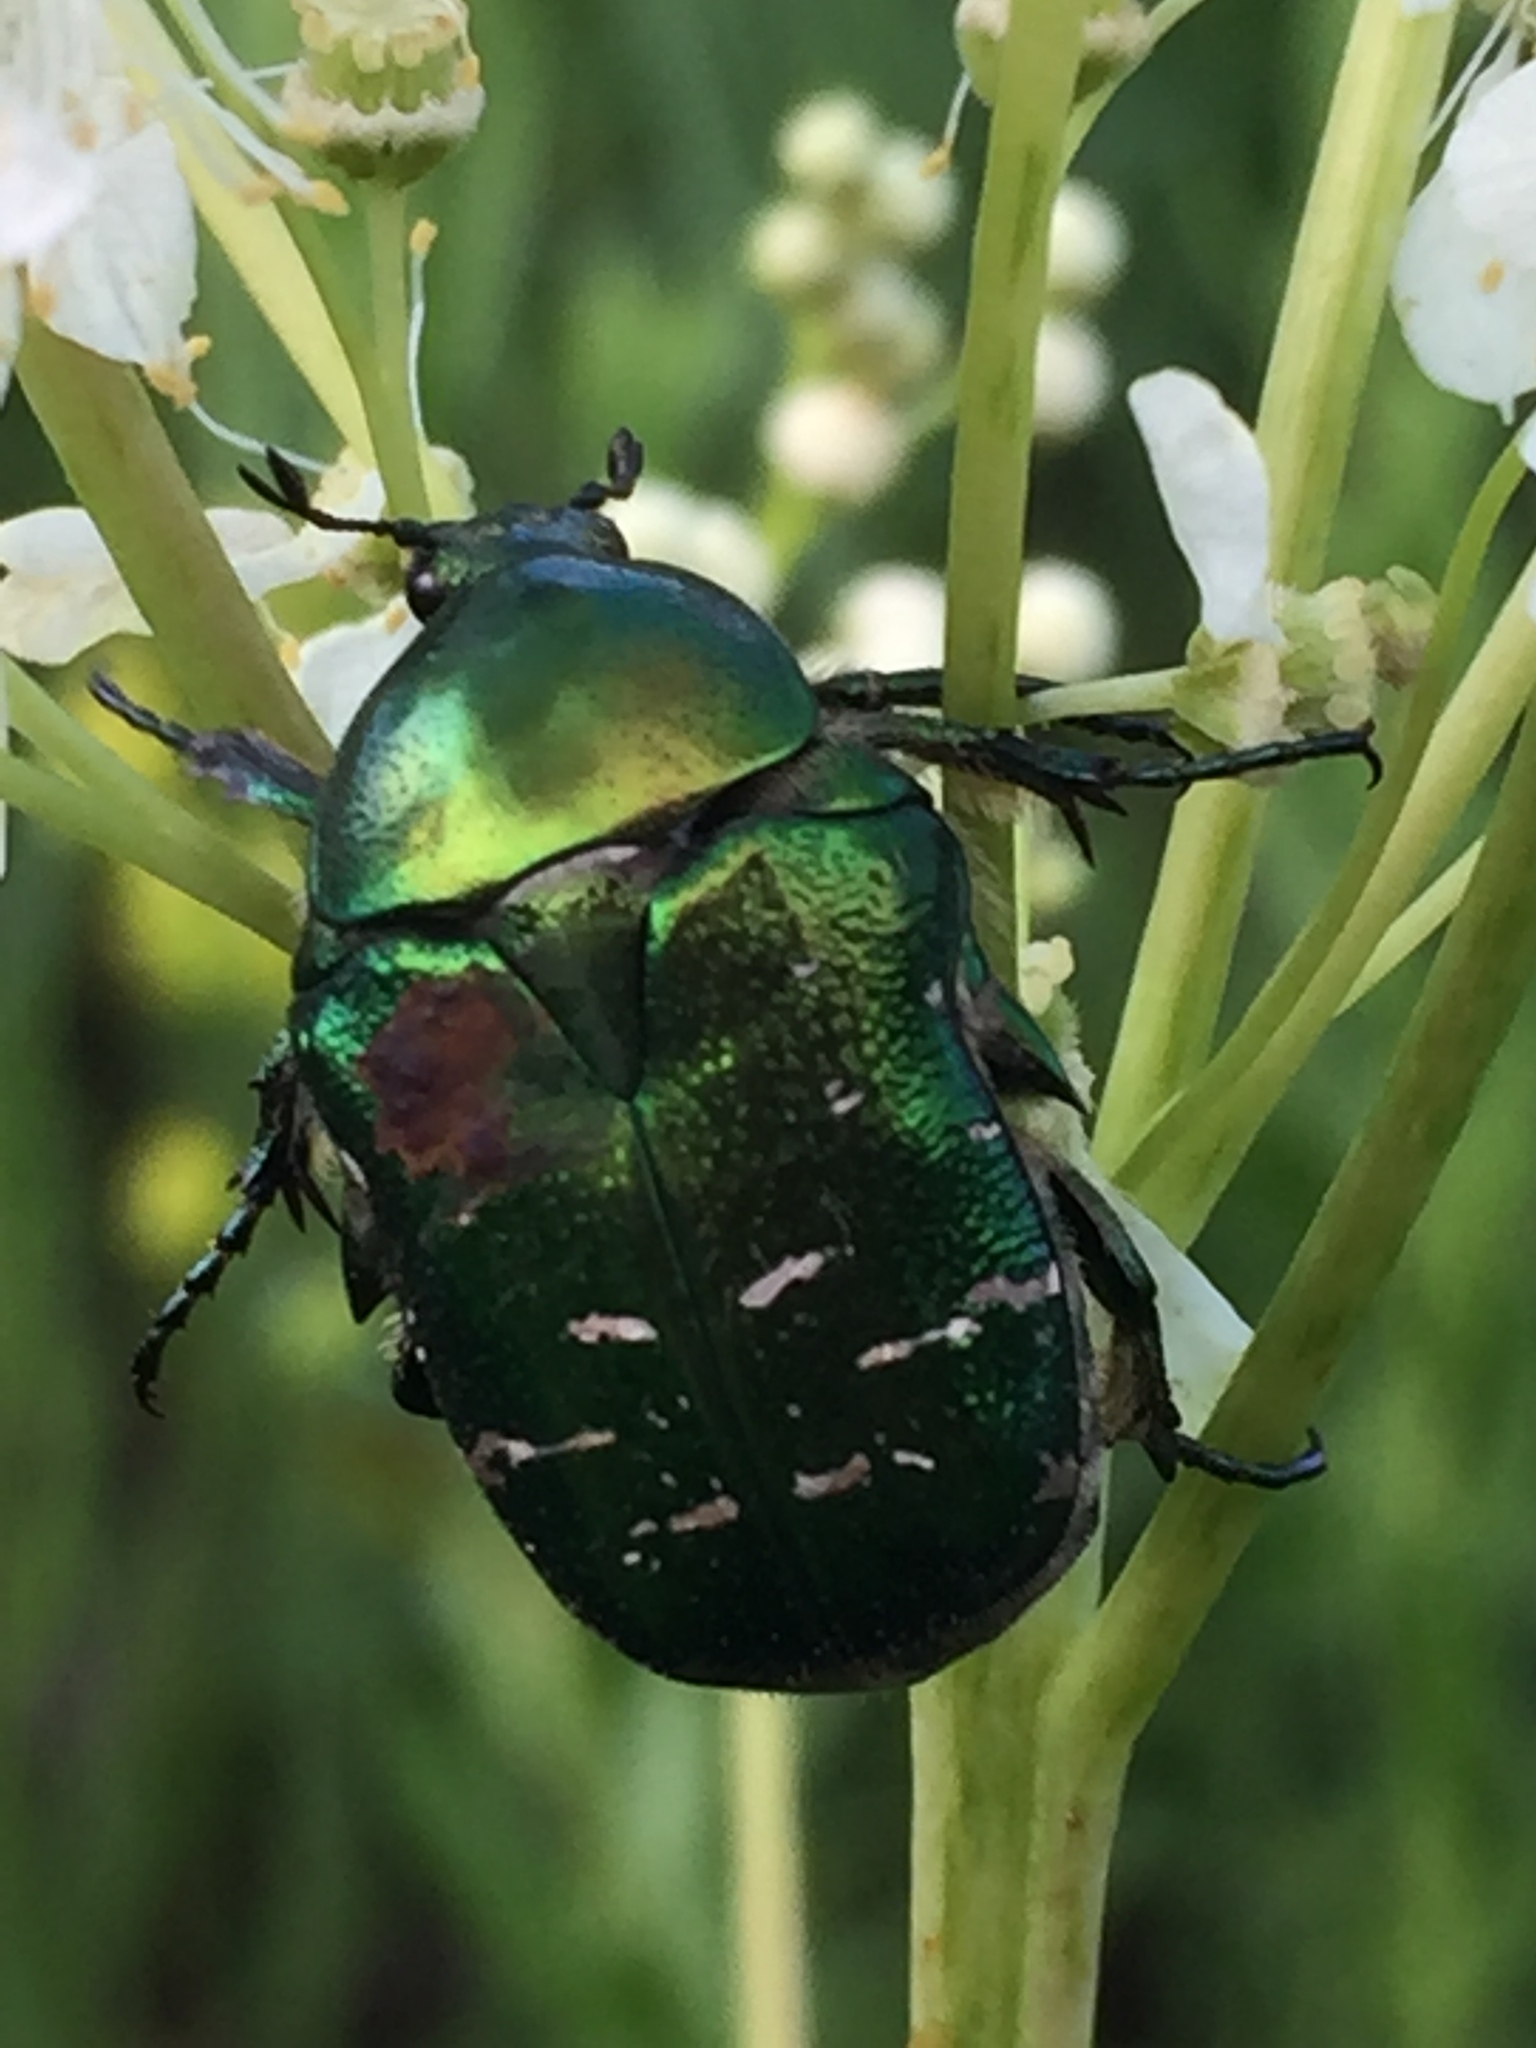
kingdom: Animalia
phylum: Arthropoda
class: Insecta
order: Coleoptera
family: Scarabaeidae
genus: Cetonia
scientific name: Cetonia aurata
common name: Rose chafer
